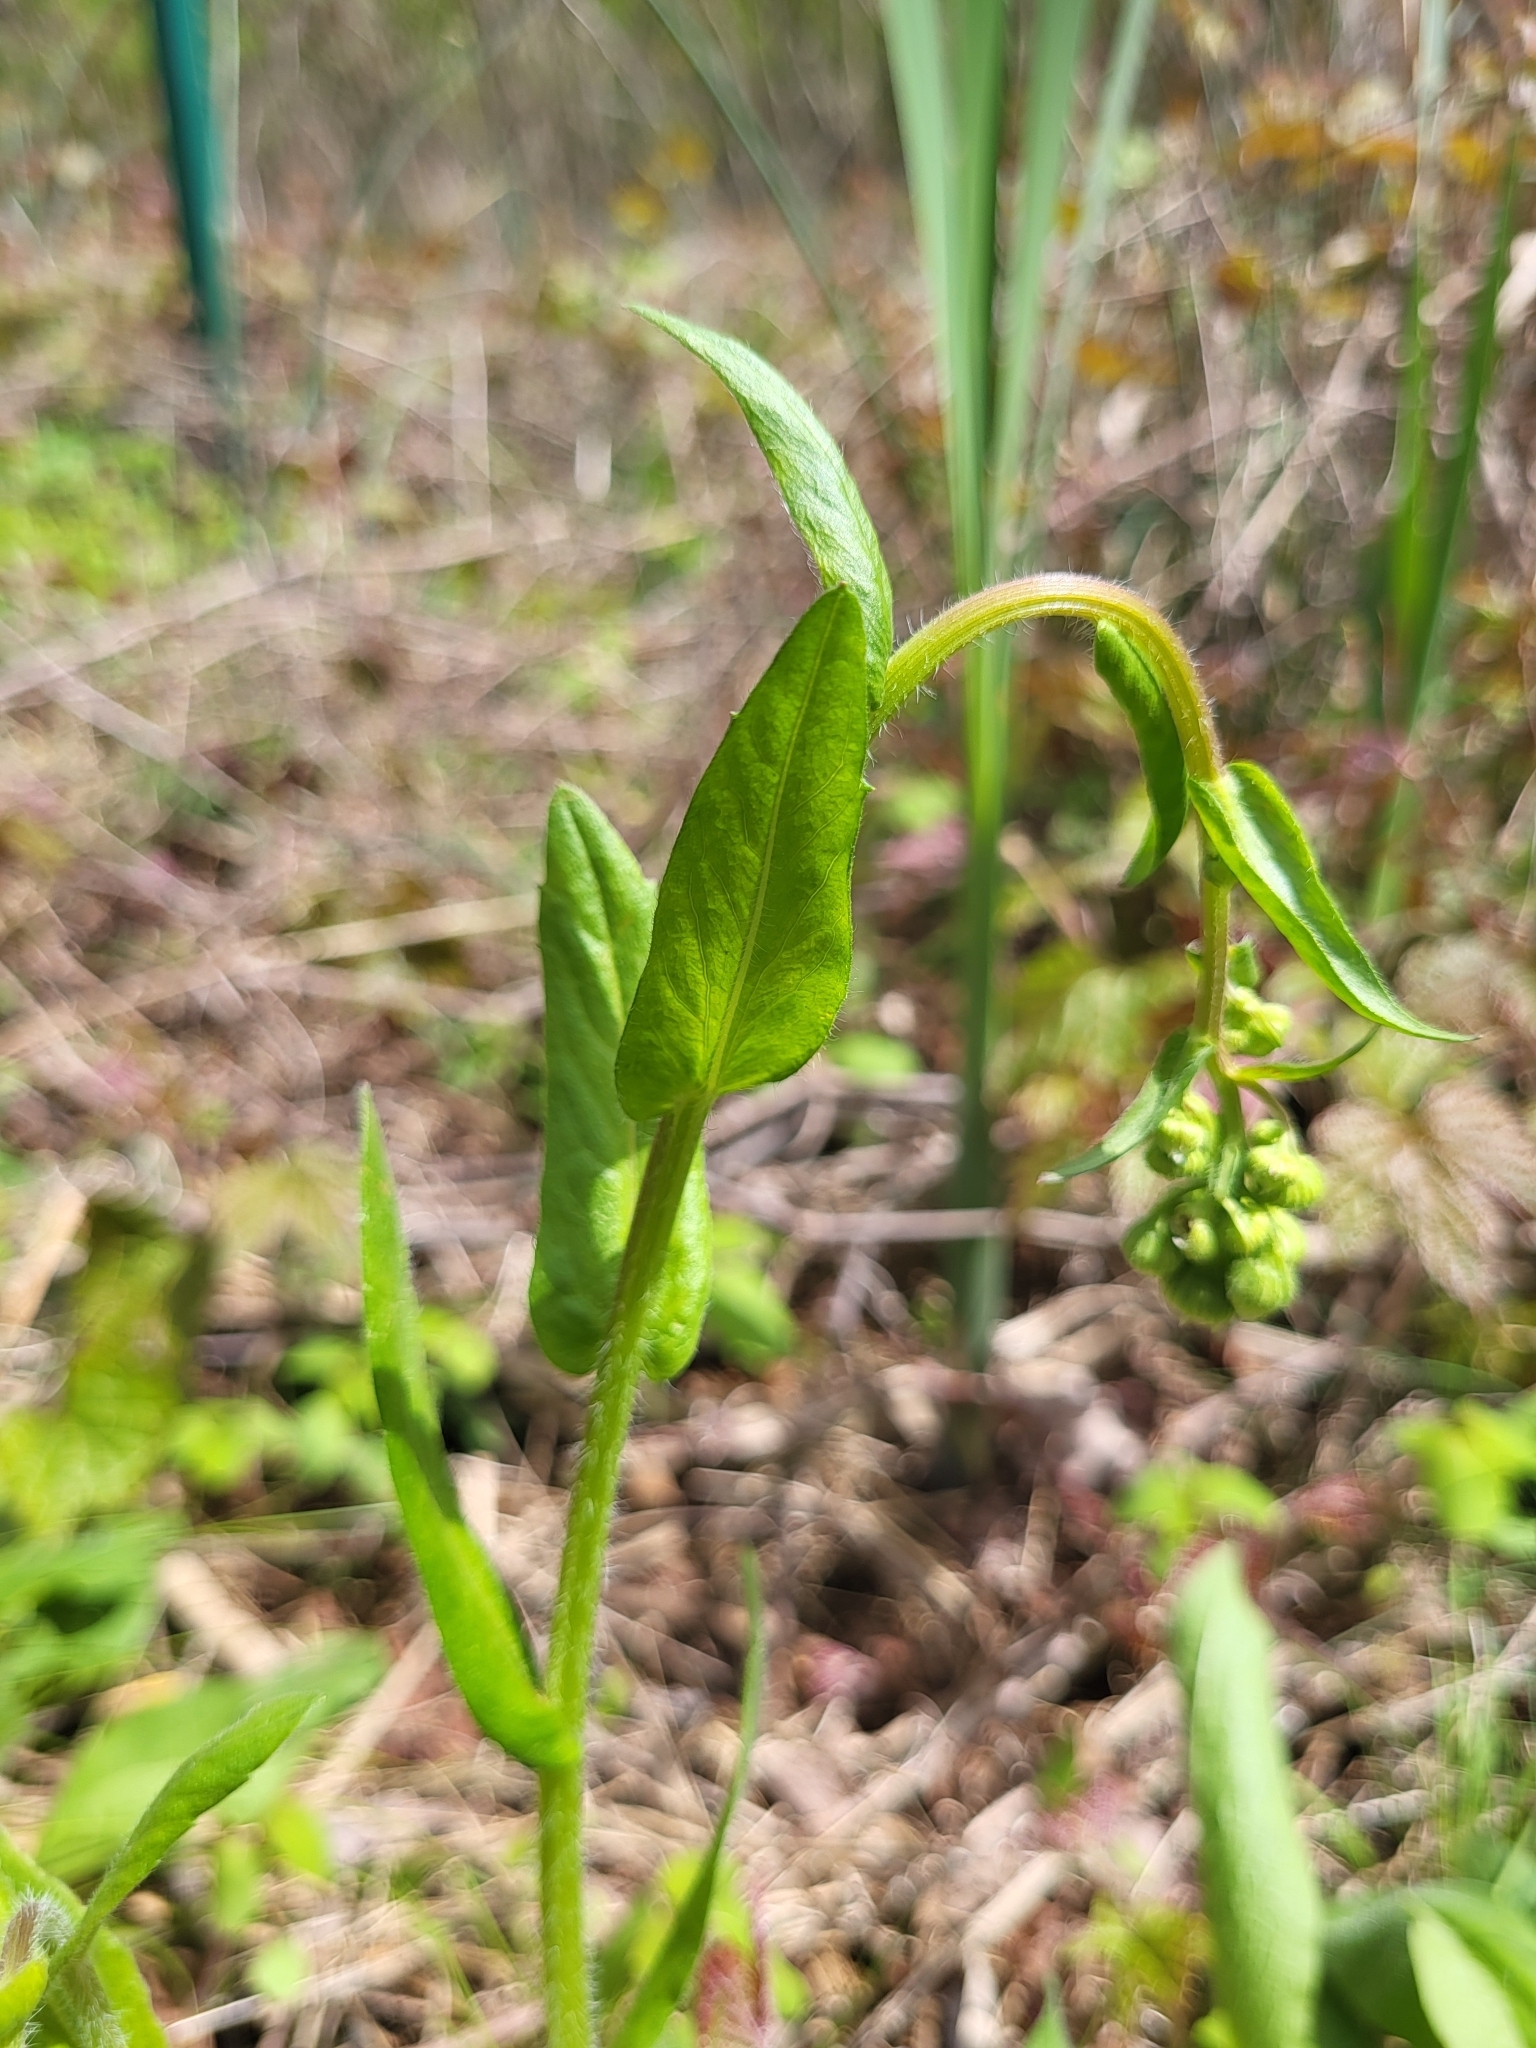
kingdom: Plantae
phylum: Tracheophyta
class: Magnoliopsida
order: Asterales
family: Asteraceae
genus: Erigeron
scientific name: Erigeron philadelphicus
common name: Robin's-plantain
